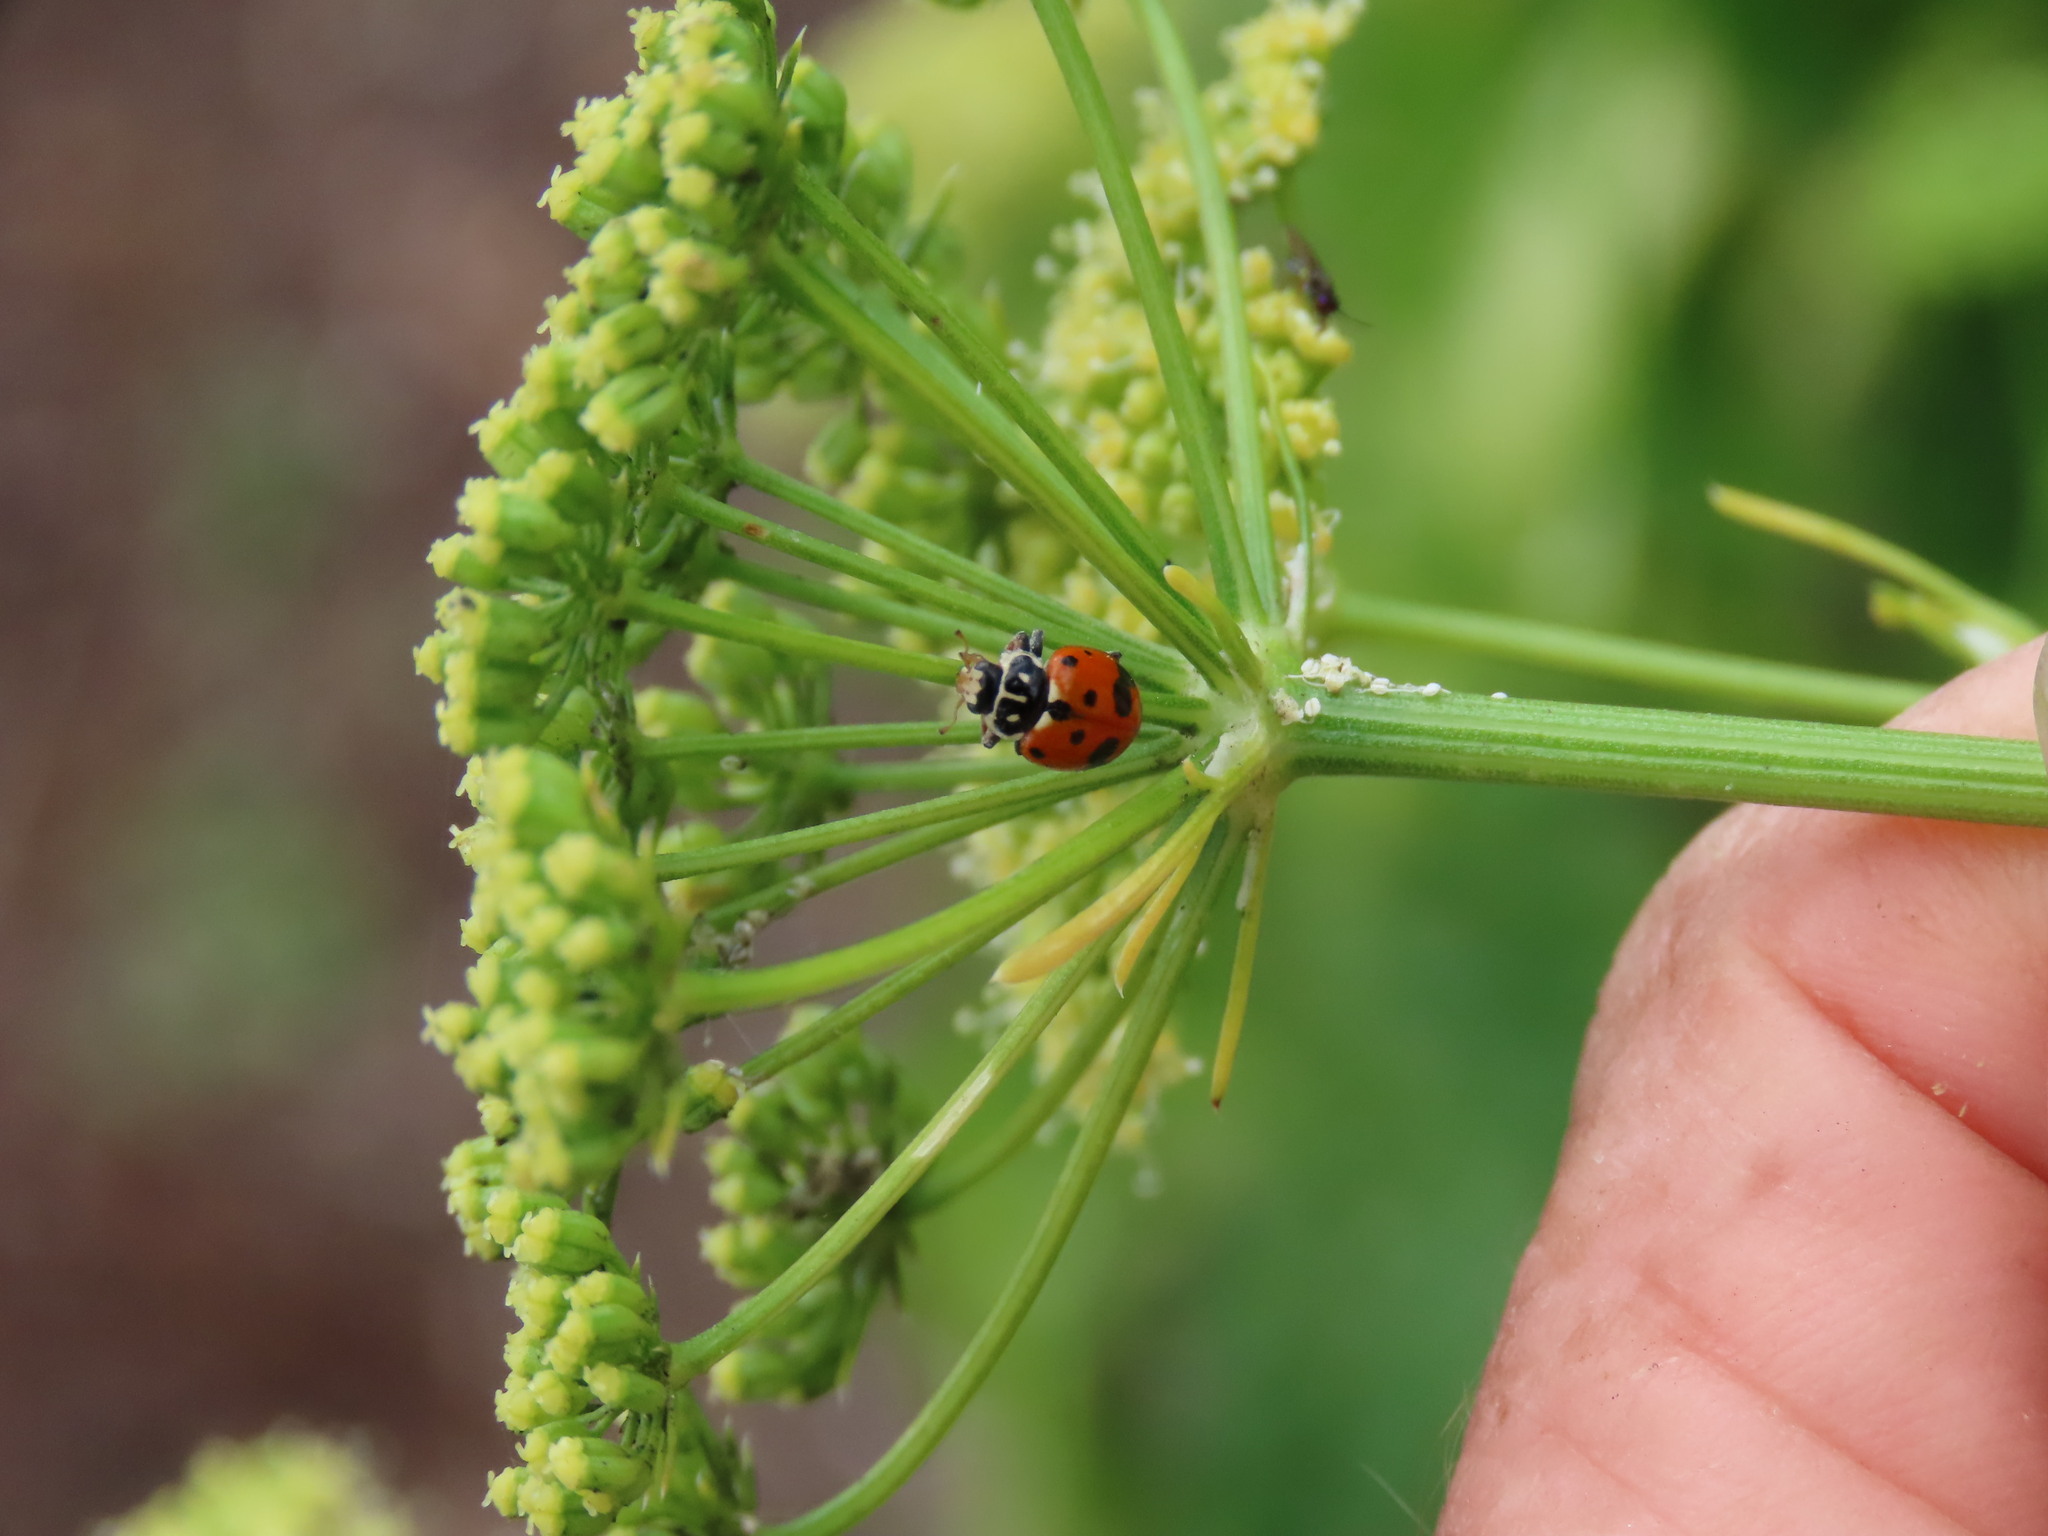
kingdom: Animalia
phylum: Arthropoda
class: Insecta
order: Coleoptera
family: Coccinellidae
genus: Hippodamia
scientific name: Hippodamia variegata
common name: Ladybird beetle
